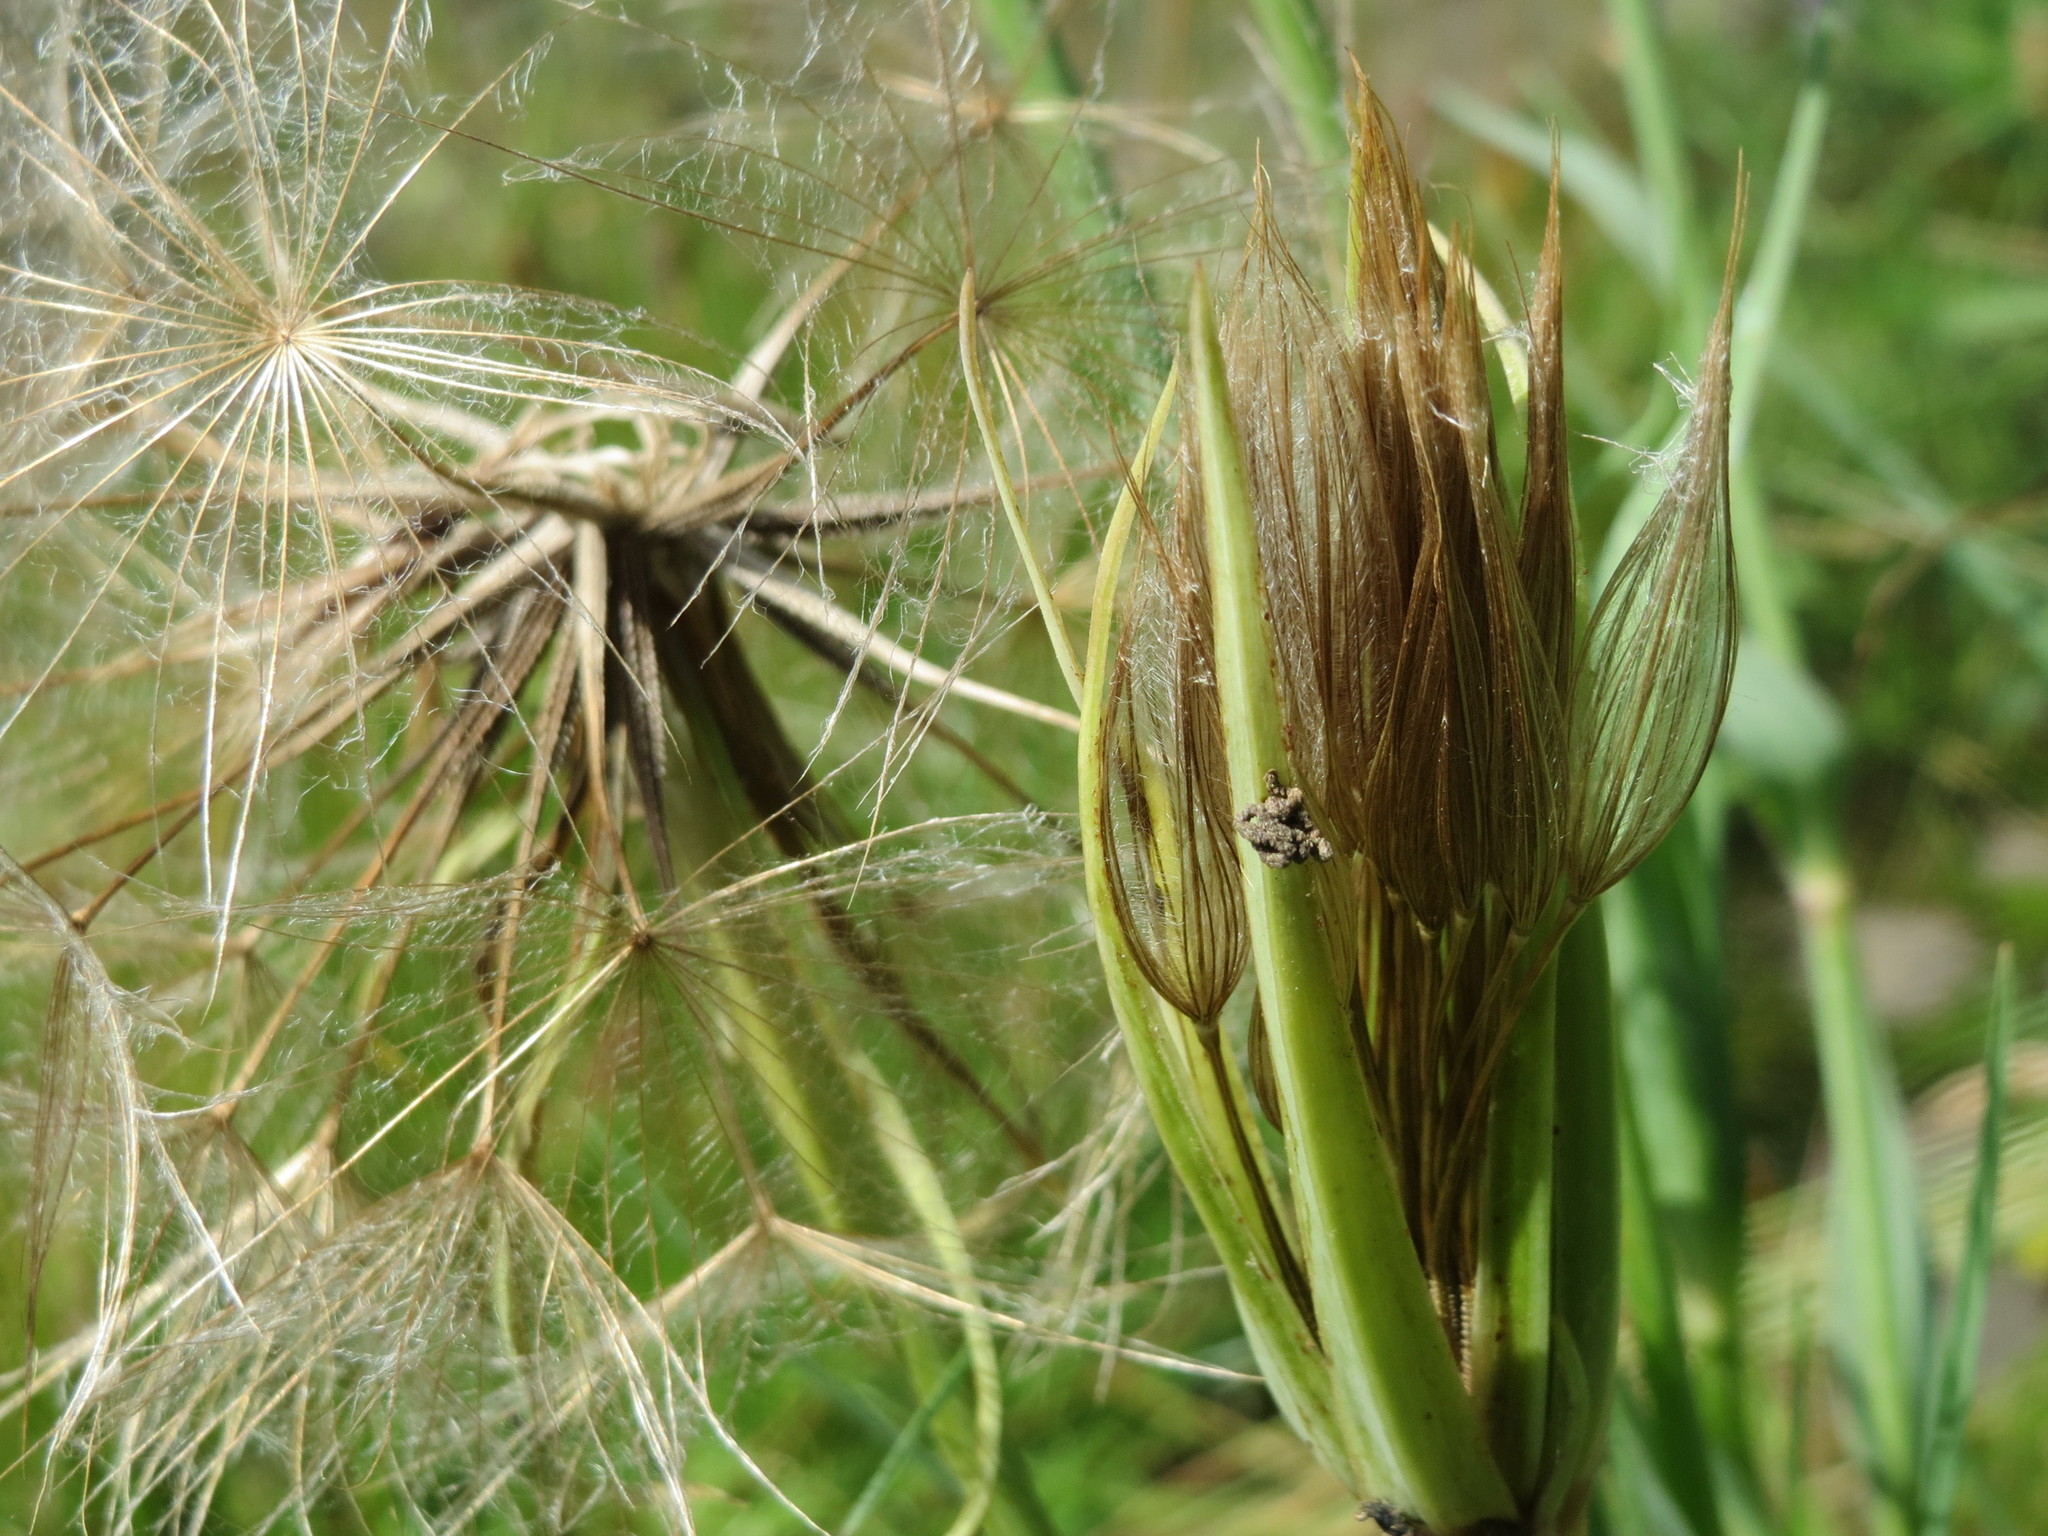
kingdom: Plantae
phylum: Tracheophyta
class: Magnoliopsida
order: Asterales
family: Asteraceae
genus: Tragopogon
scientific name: Tragopogon dubius
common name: Yellow salsify
